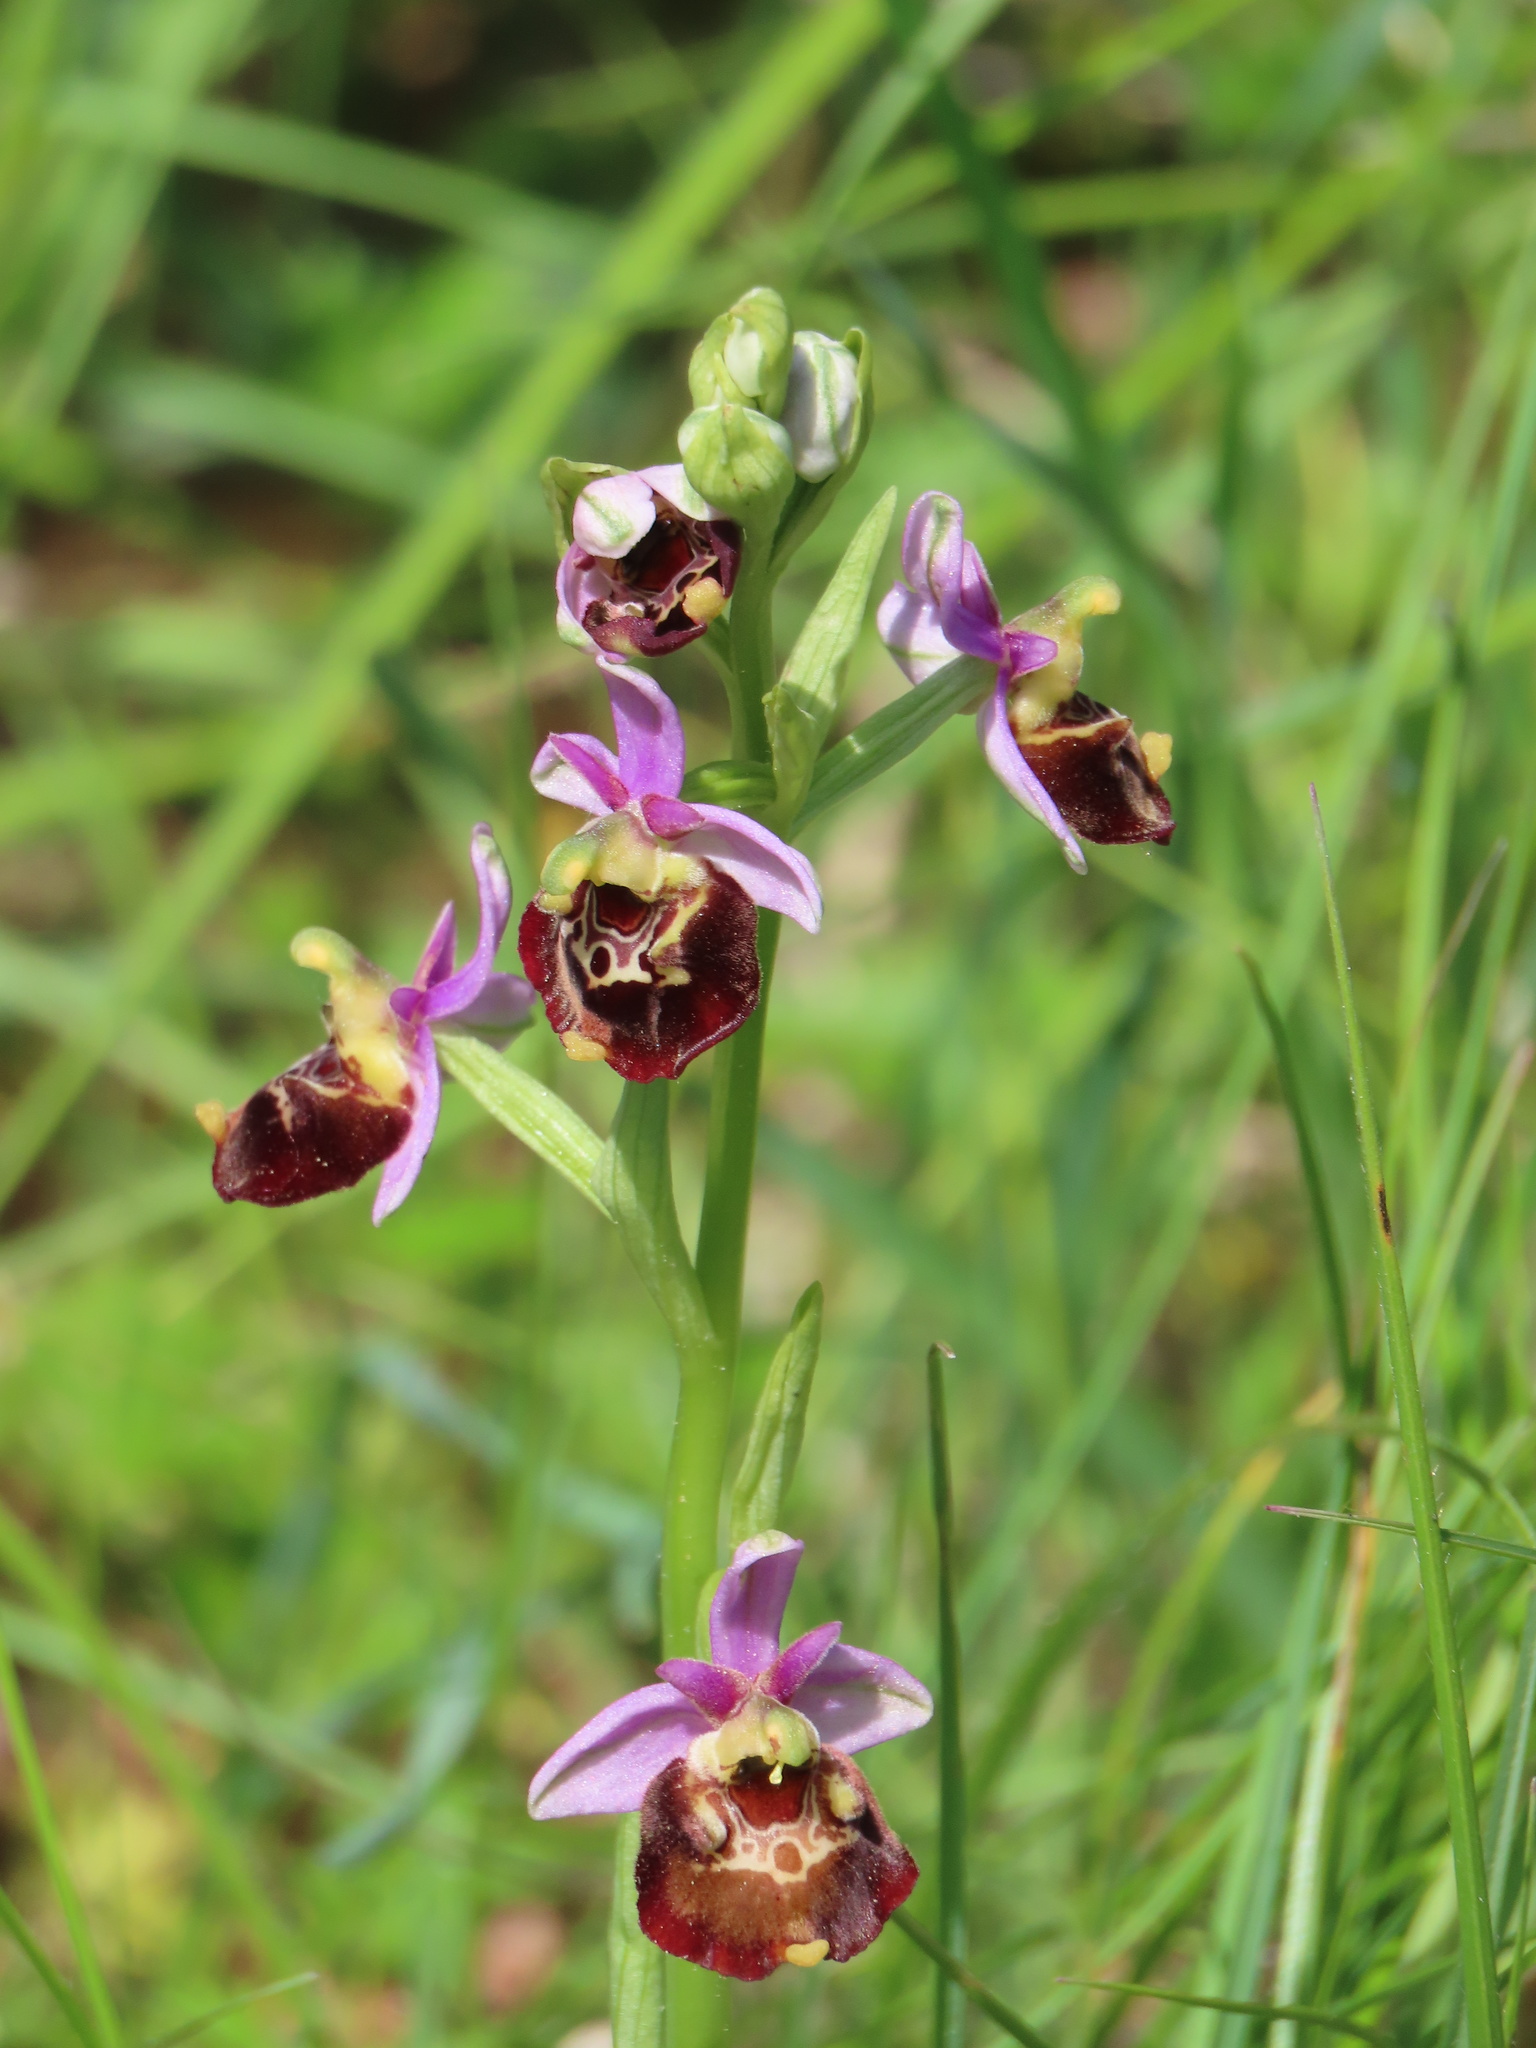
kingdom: Plantae
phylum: Tracheophyta
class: Liliopsida
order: Asparagales
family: Orchidaceae
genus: Ophrys
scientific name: Ophrys holosericea
